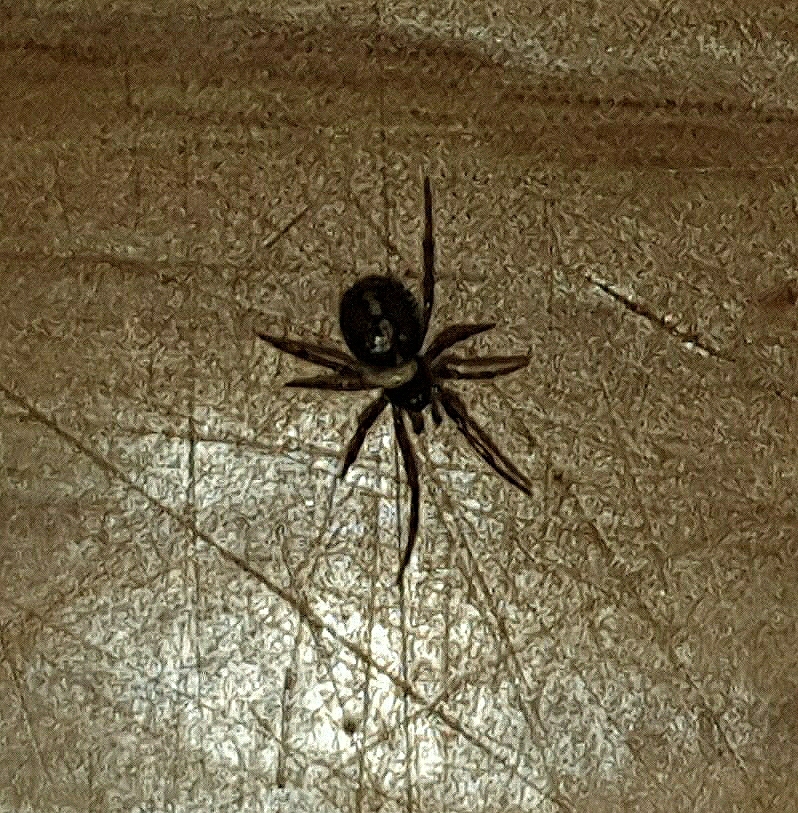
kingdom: Animalia
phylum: Arthropoda
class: Arachnida
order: Araneae
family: Theridiidae
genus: Steatoda
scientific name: Steatoda bipunctata
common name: False widow
